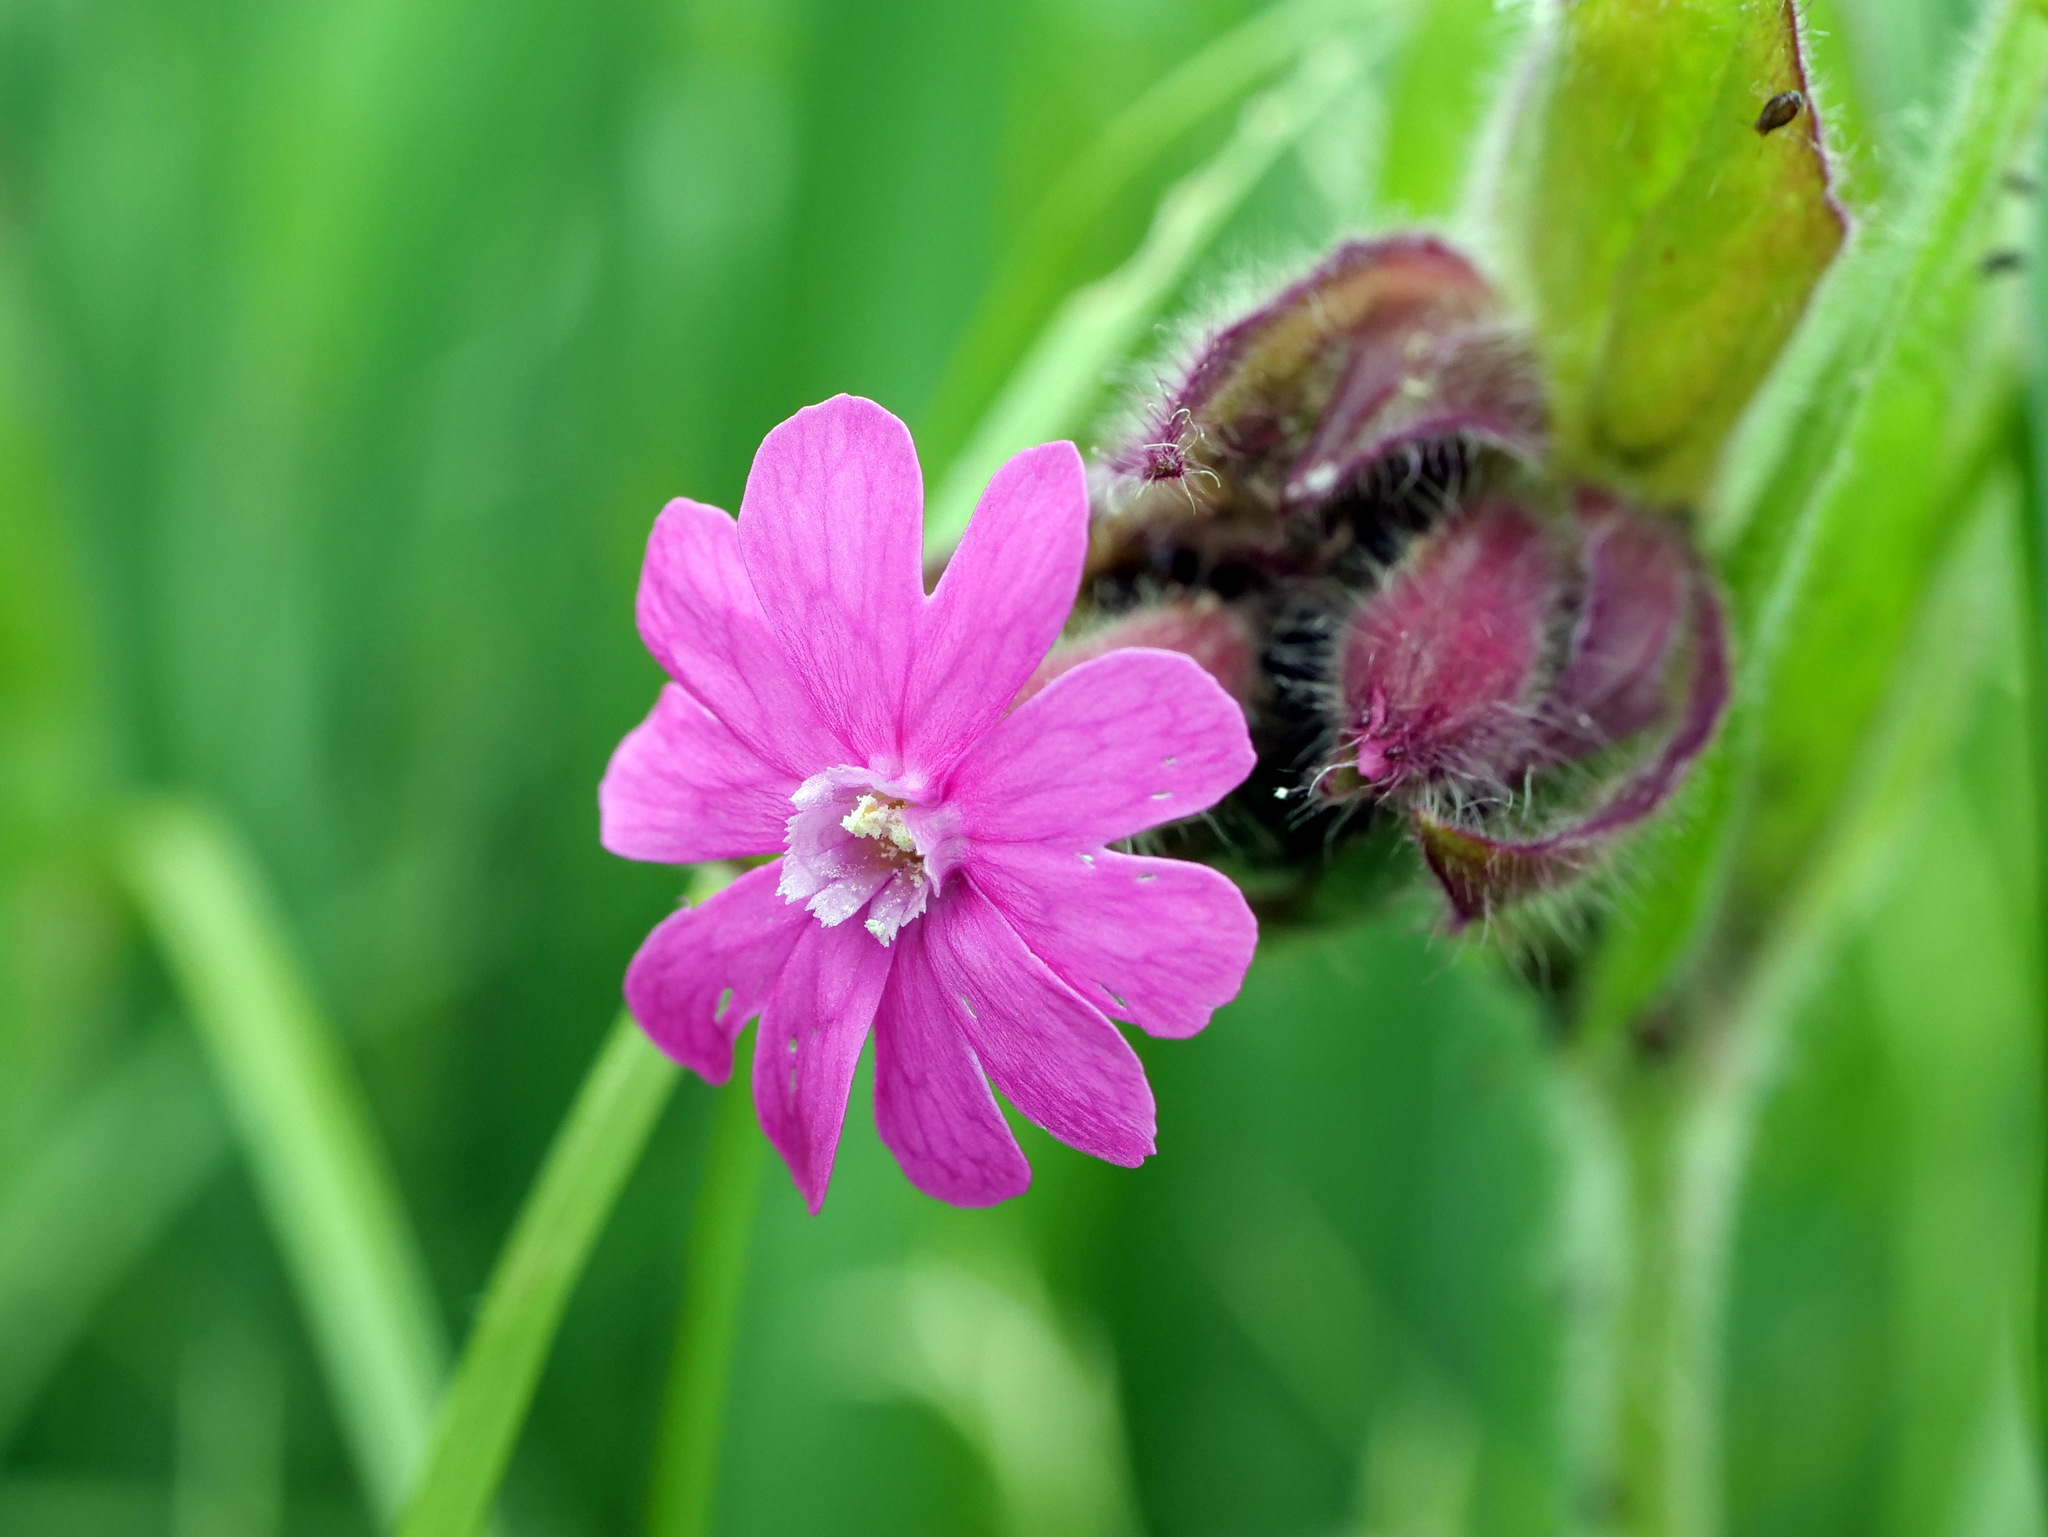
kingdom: Plantae
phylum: Tracheophyta
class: Magnoliopsida
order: Caryophyllales
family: Caryophyllaceae
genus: Silene
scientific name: Silene dioica
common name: Red campion
